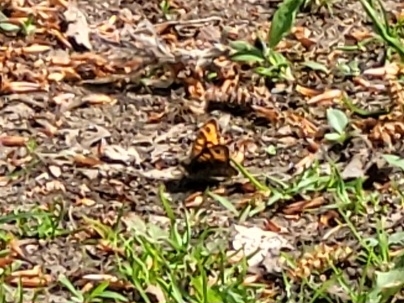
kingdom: Animalia
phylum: Arthropoda
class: Insecta
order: Lepidoptera
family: Nymphalidae
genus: Pararge
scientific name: Pararge Lasiommata megera
